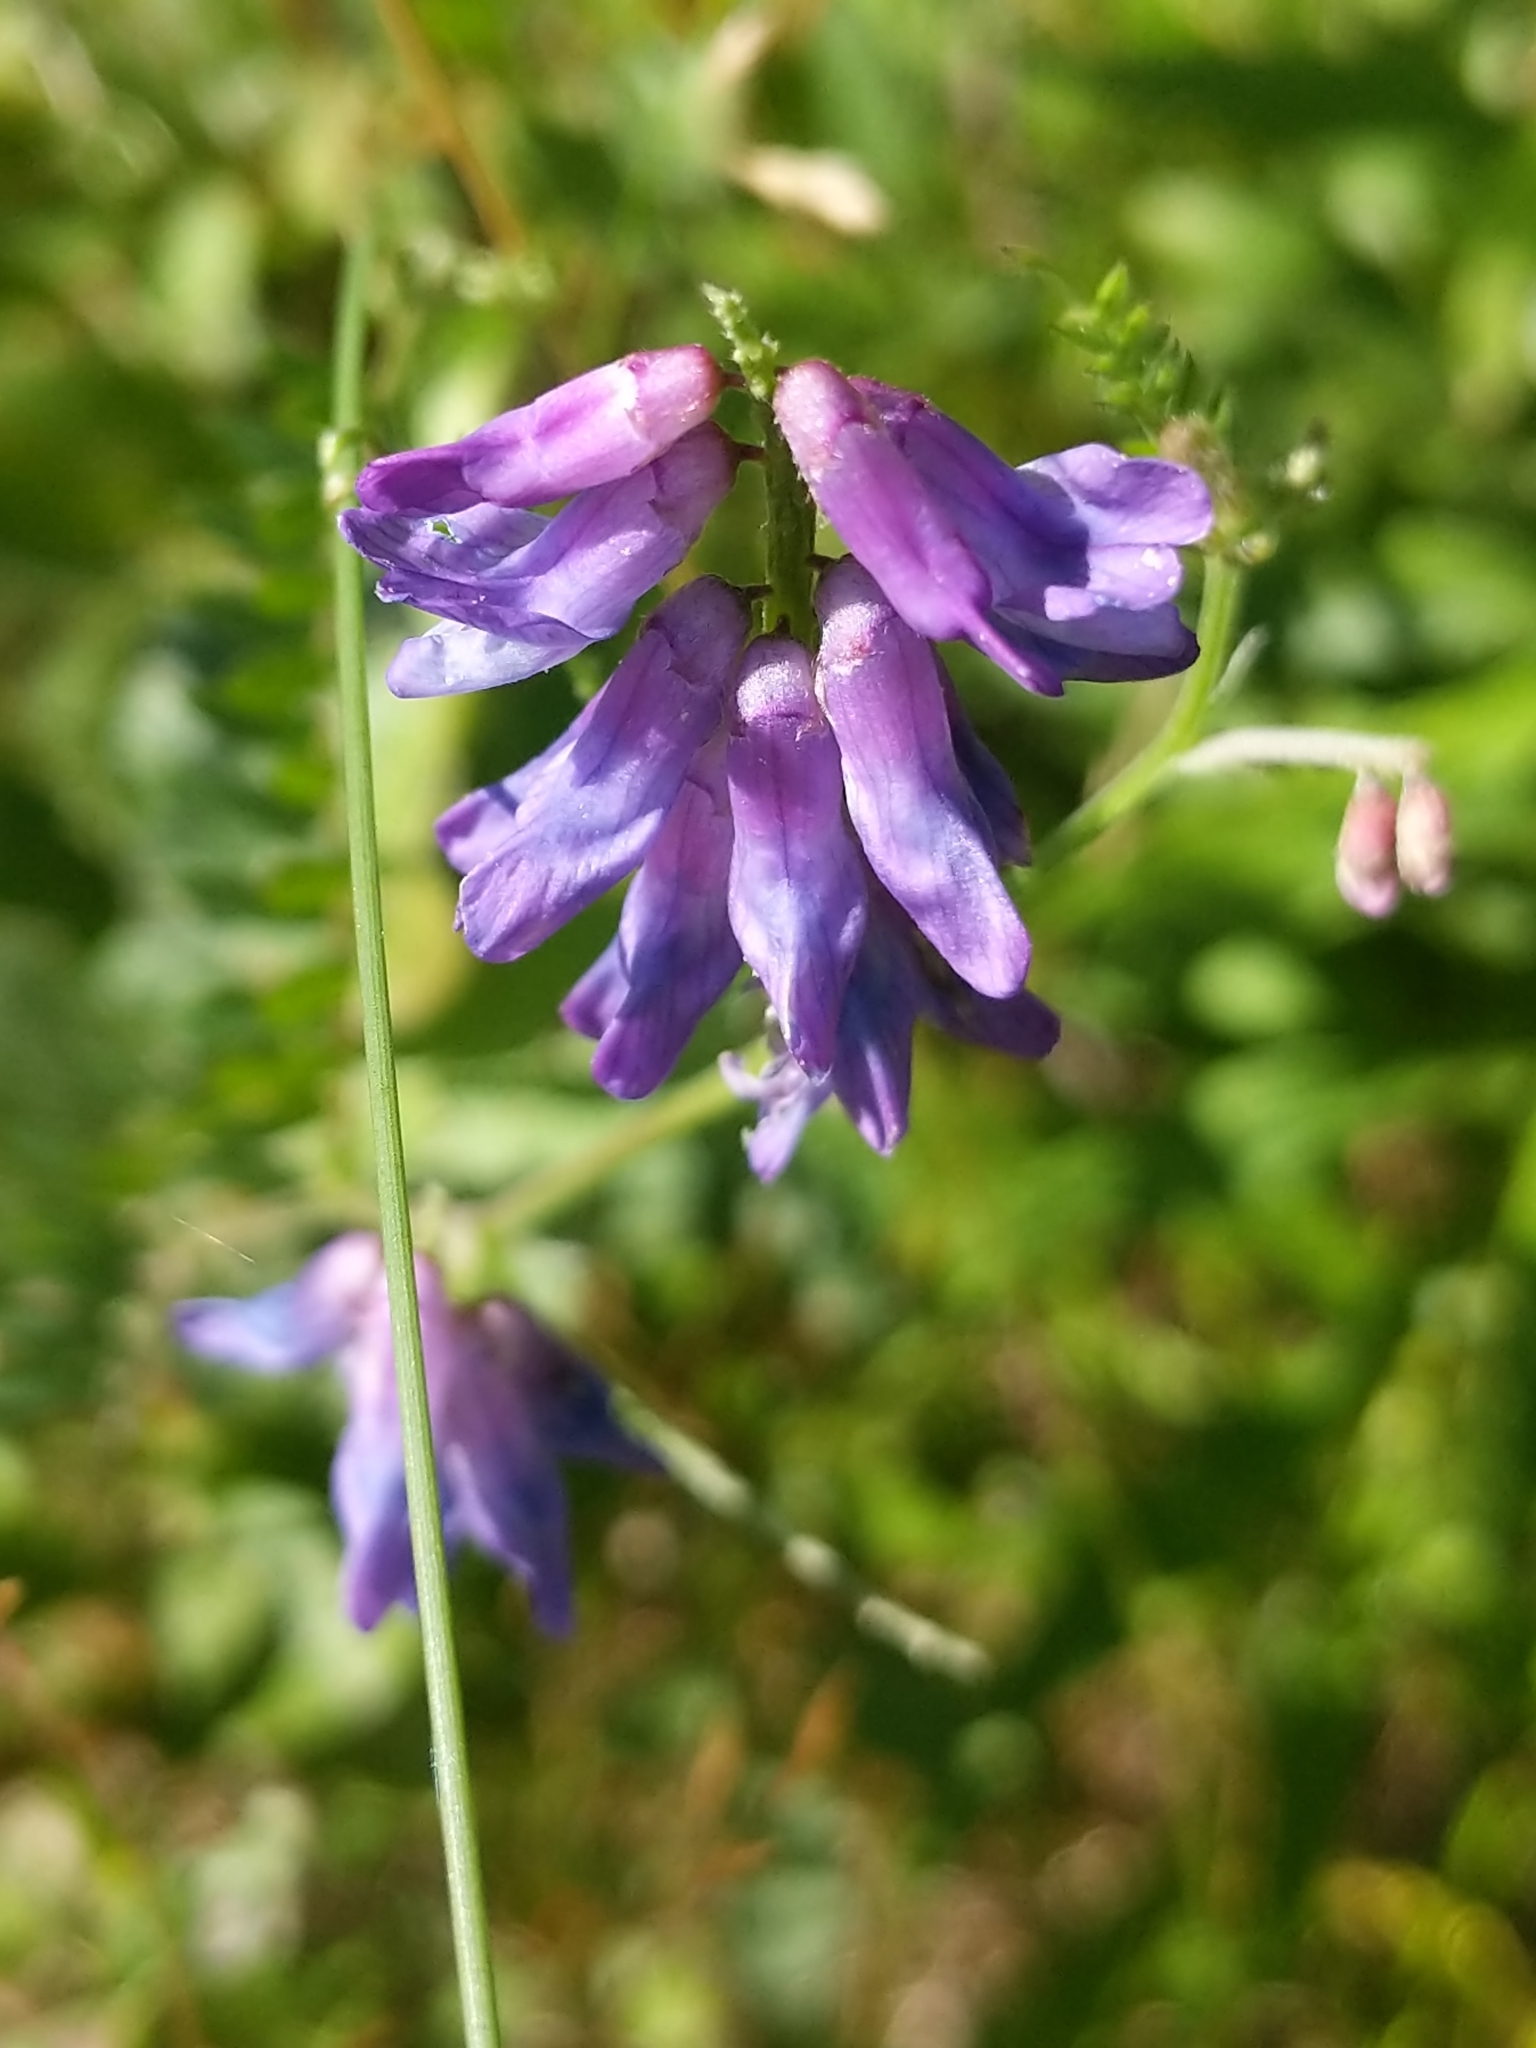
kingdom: Plantae
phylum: Tracheophyta
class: Magnoliopsida
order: Fabales
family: Fabaceae
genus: Vicia
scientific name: Vicia cracca
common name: Bird vetch
